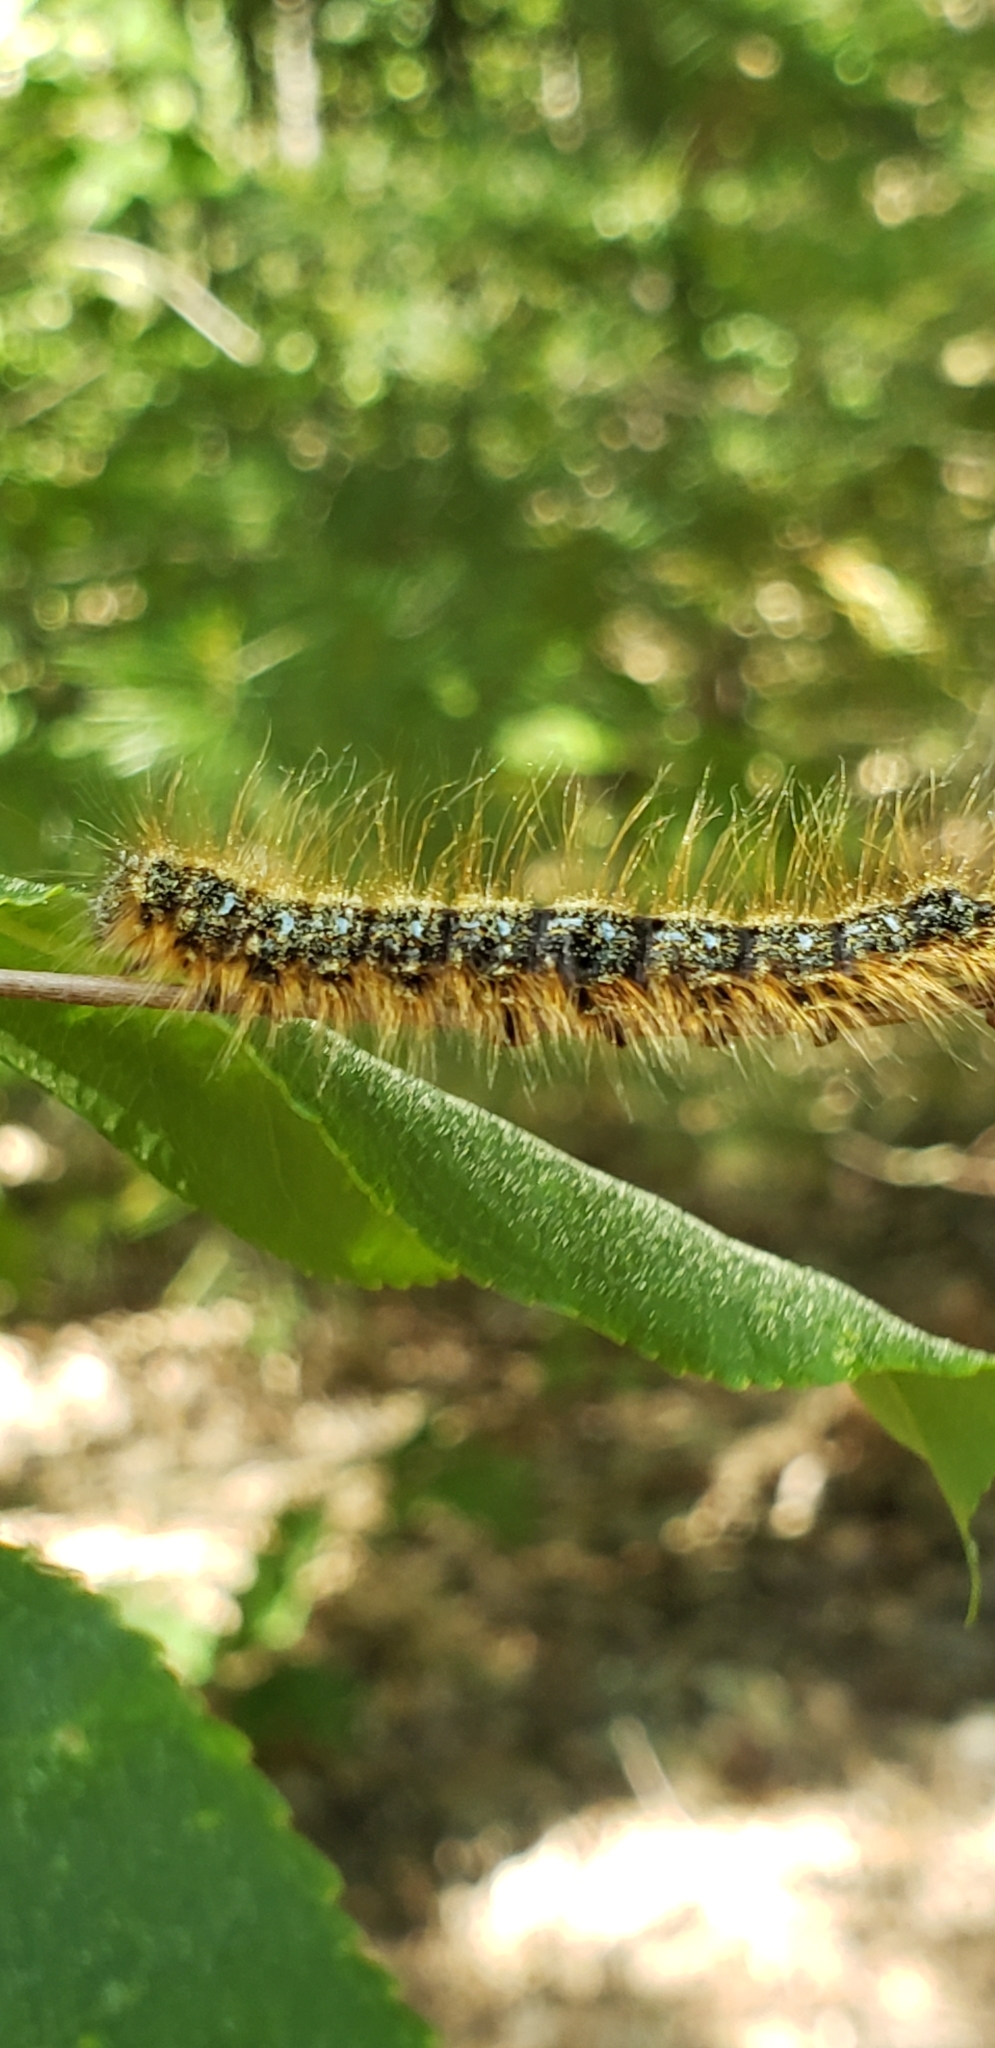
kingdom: Animalia
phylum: Arthropoda
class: Insecta
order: Lepidoptera
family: Lasiocampidae
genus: Malacosoma
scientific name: Malacosoma americana
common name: Eastern tent caterpillar moth
